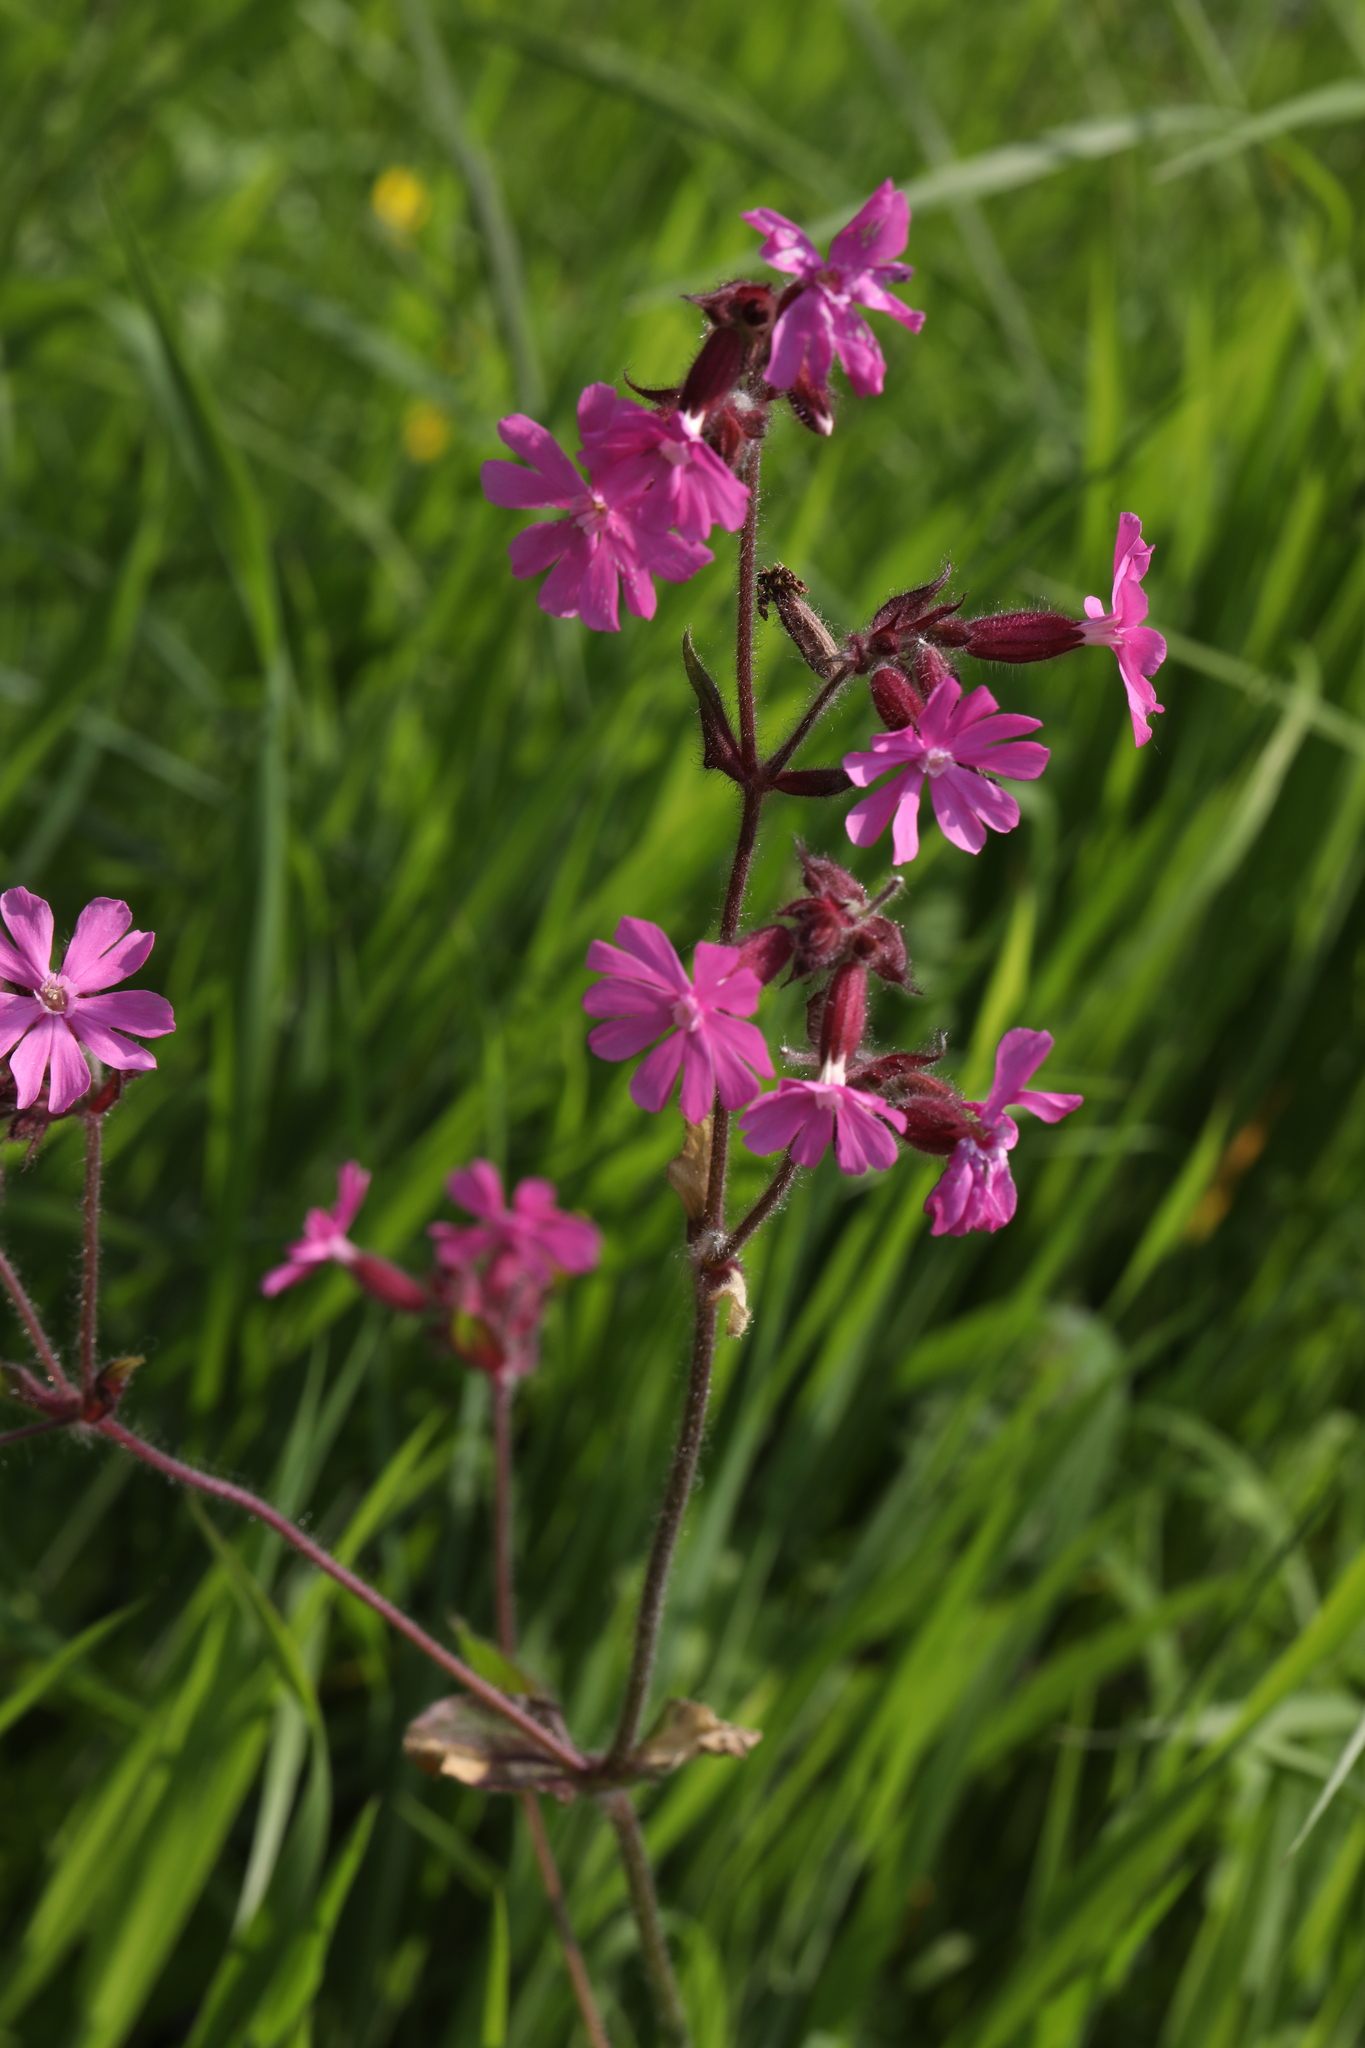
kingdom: Plantae
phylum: Tracheophyta
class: Magnoliopsida
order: Caryophyllales
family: Caryophyllaceae
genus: Silene
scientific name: Silene dioica
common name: Red campion
